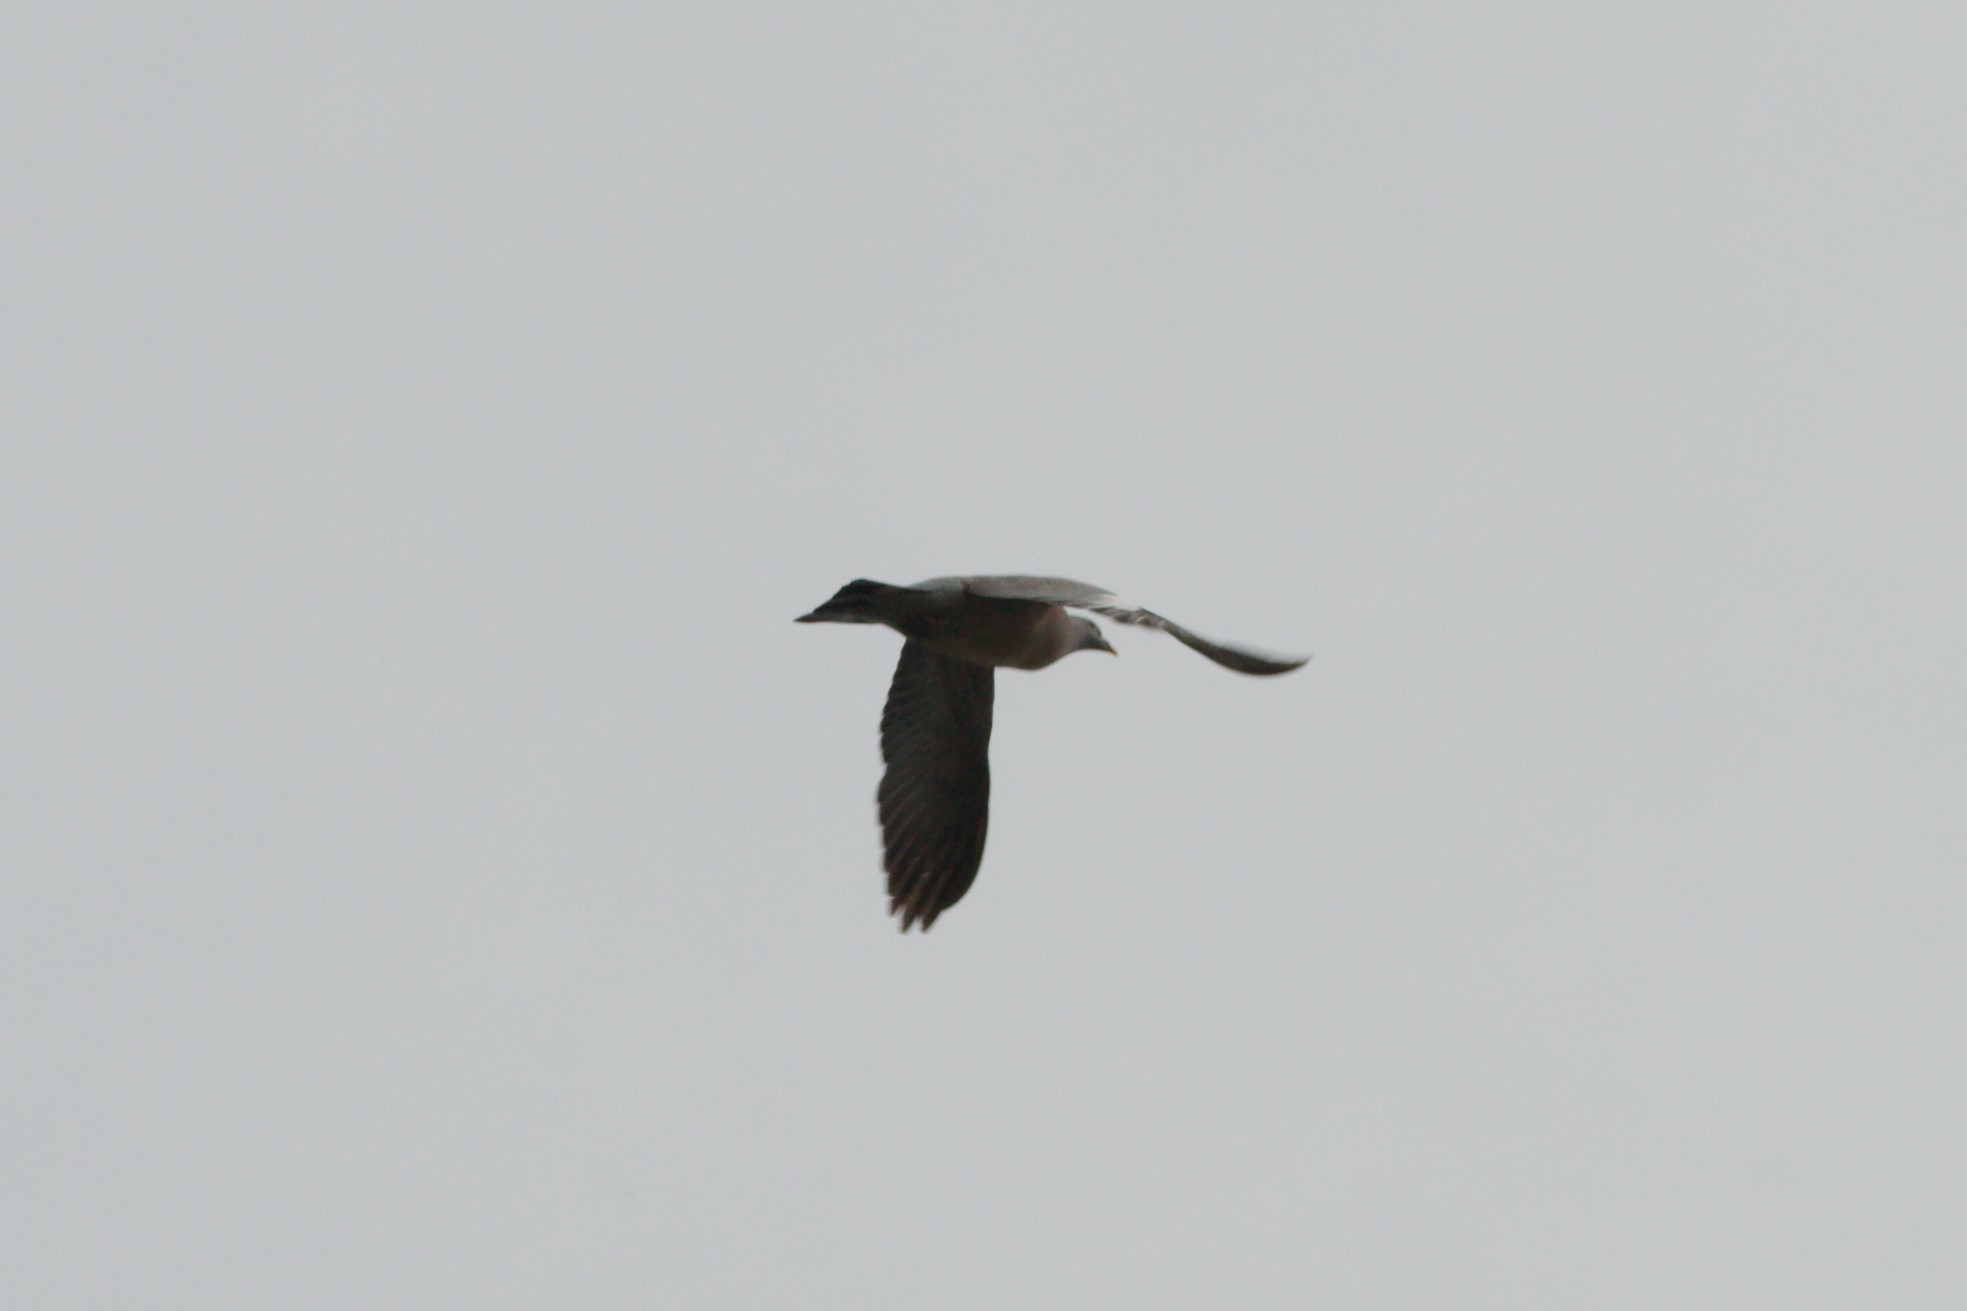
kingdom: Animalia
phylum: Chordata
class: Aves
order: Columbiformes
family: Columbidae
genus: Columba
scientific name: Columba palumbus
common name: Common wood pigeon
